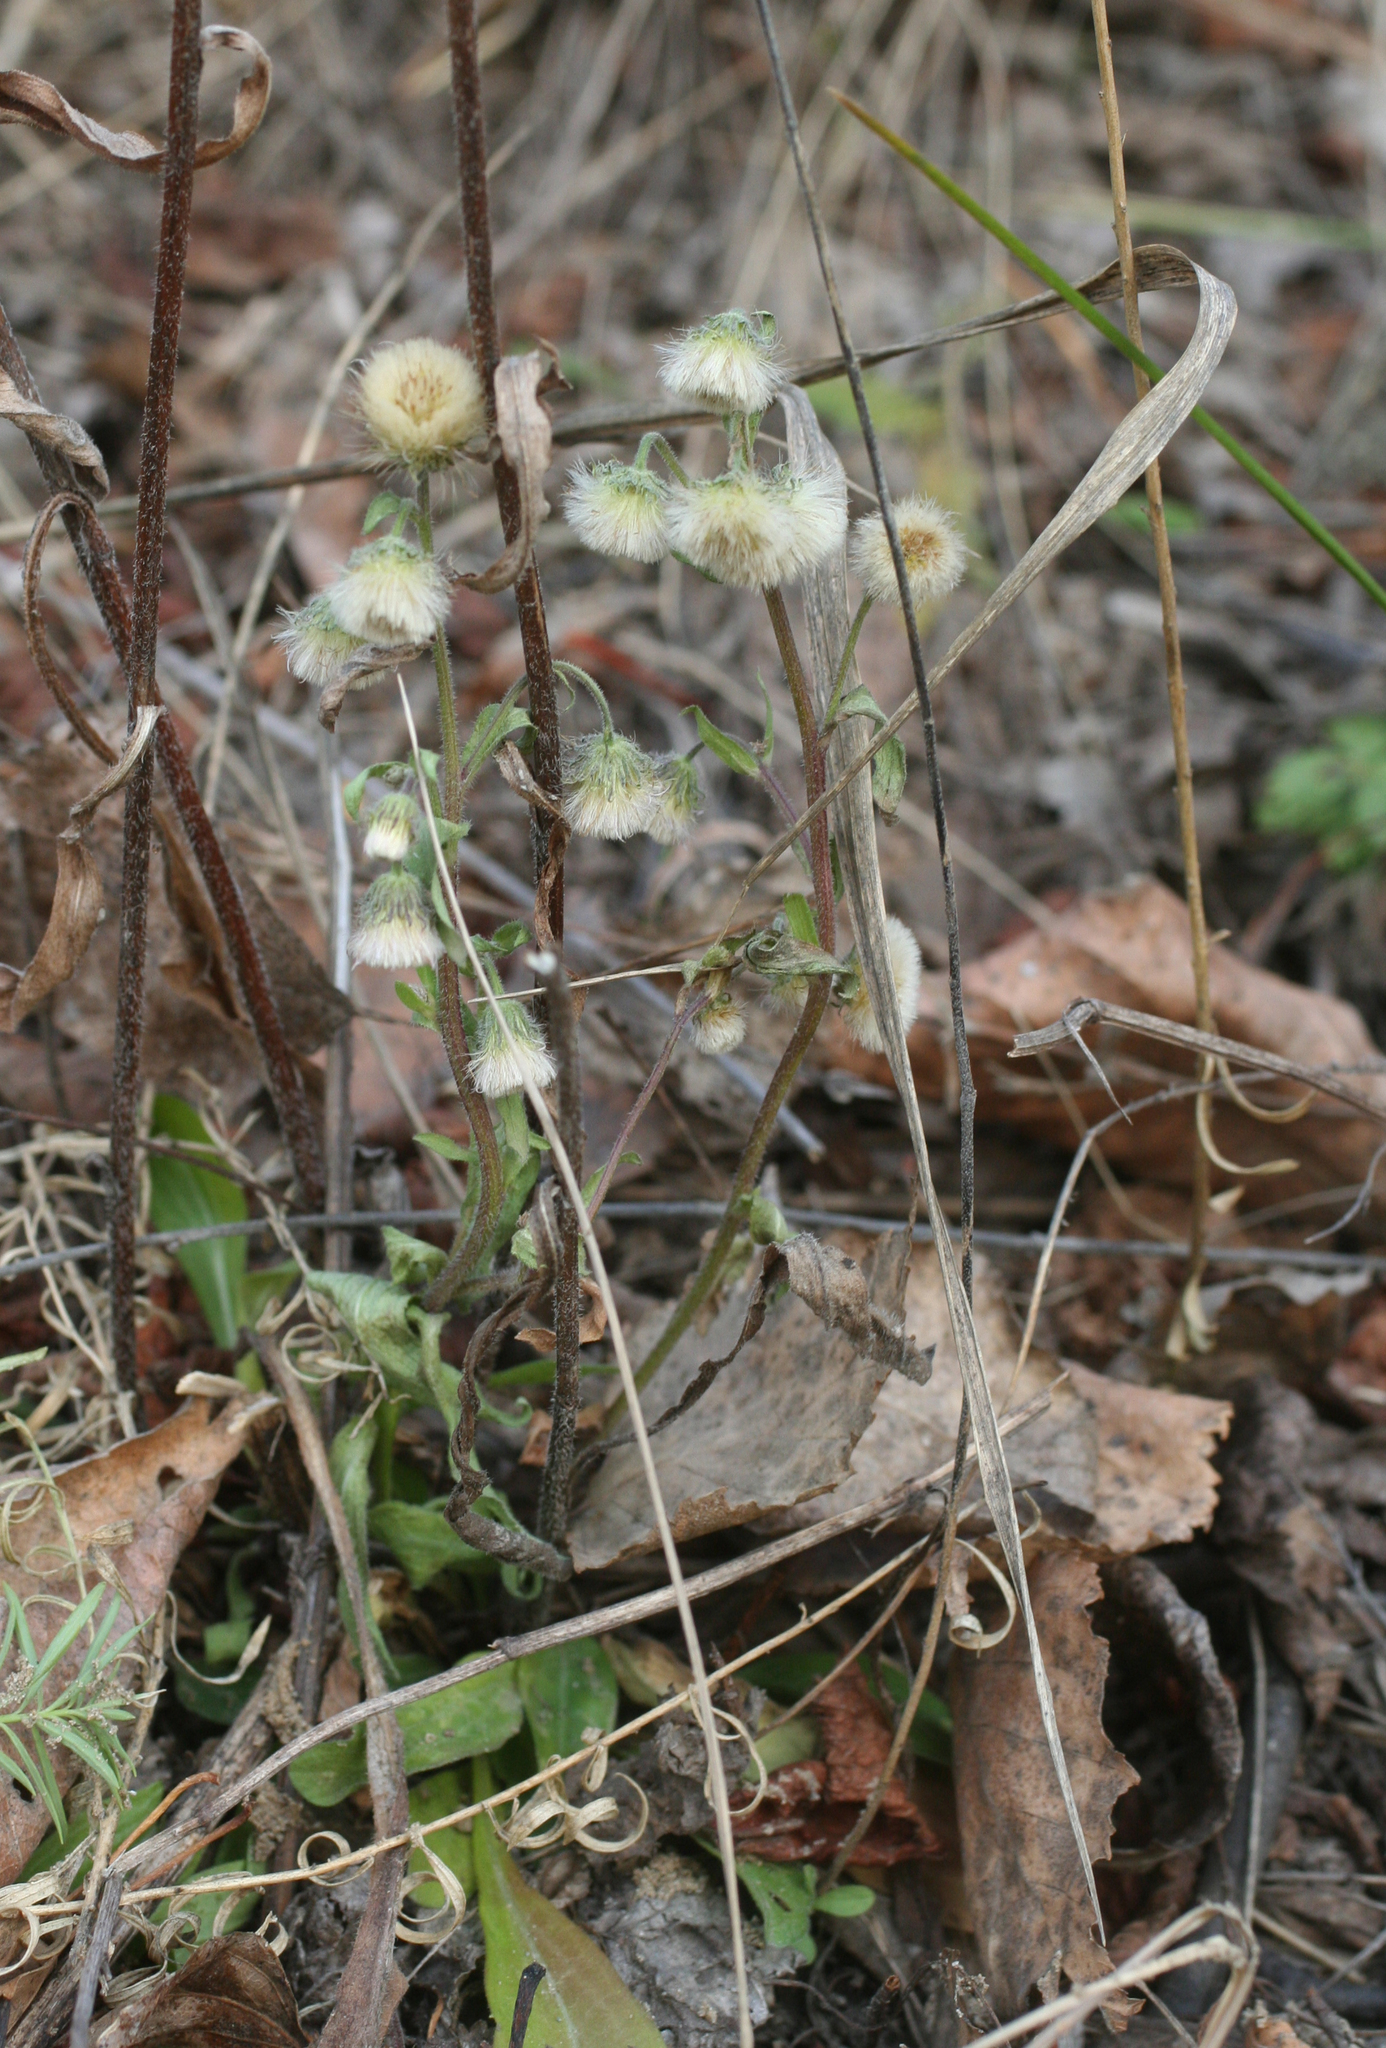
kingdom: Plantae
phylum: Tracheophyta
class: Magnoliopsida
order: Asterales
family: Asteraceae
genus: Erigeron
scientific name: Erigeron acris
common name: Blue fleabane
